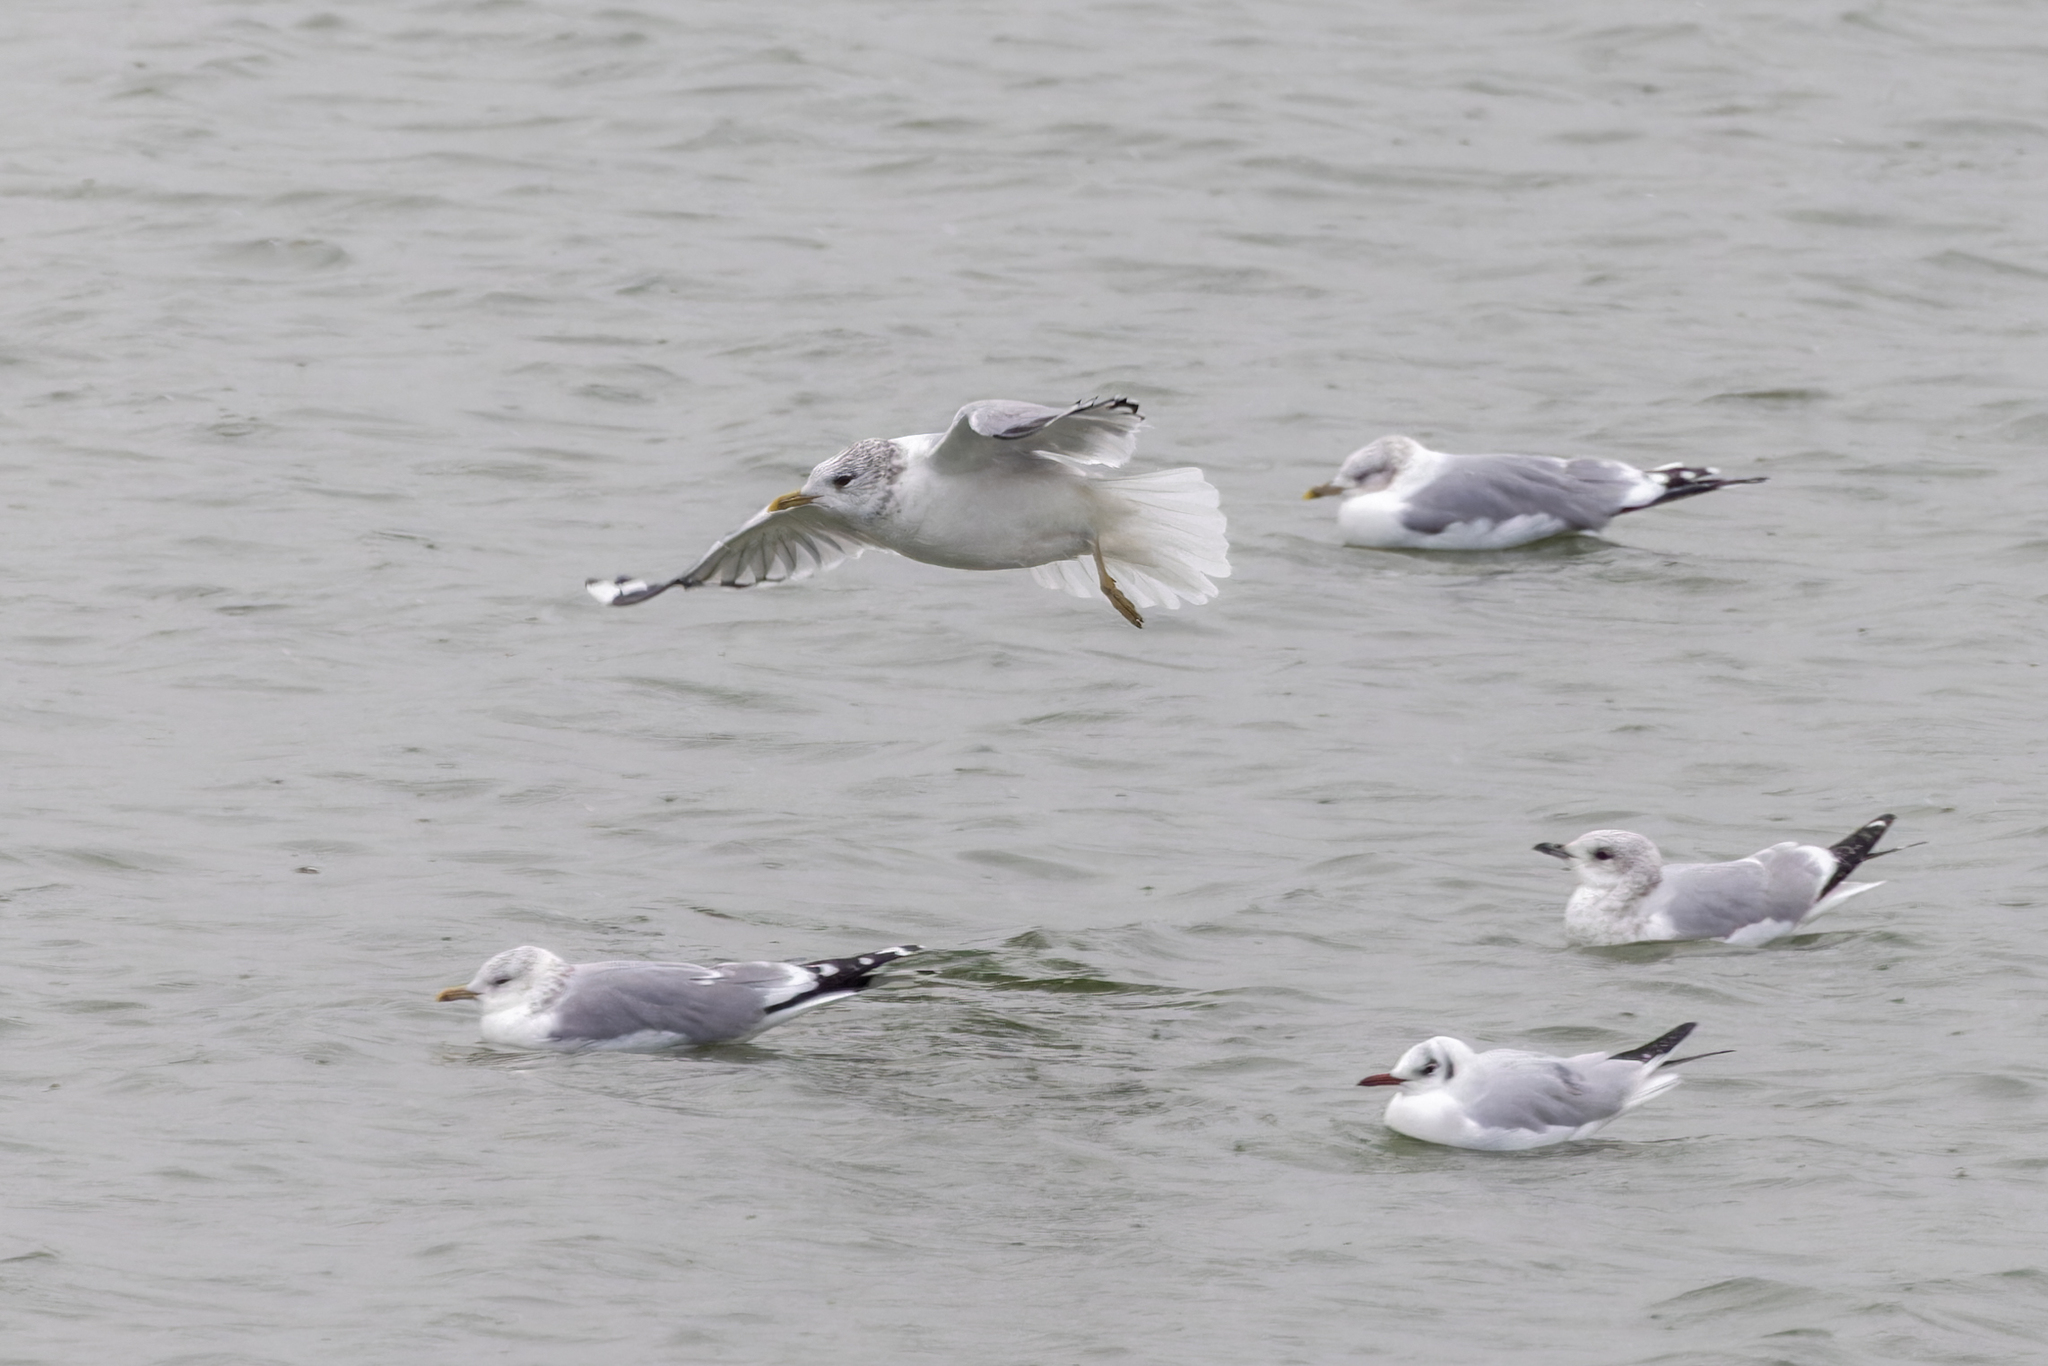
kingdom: Animalia
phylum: Chordata
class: Aves
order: Charadriiformes
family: Laridae
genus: Larus
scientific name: Larus canus
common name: Mew gull
